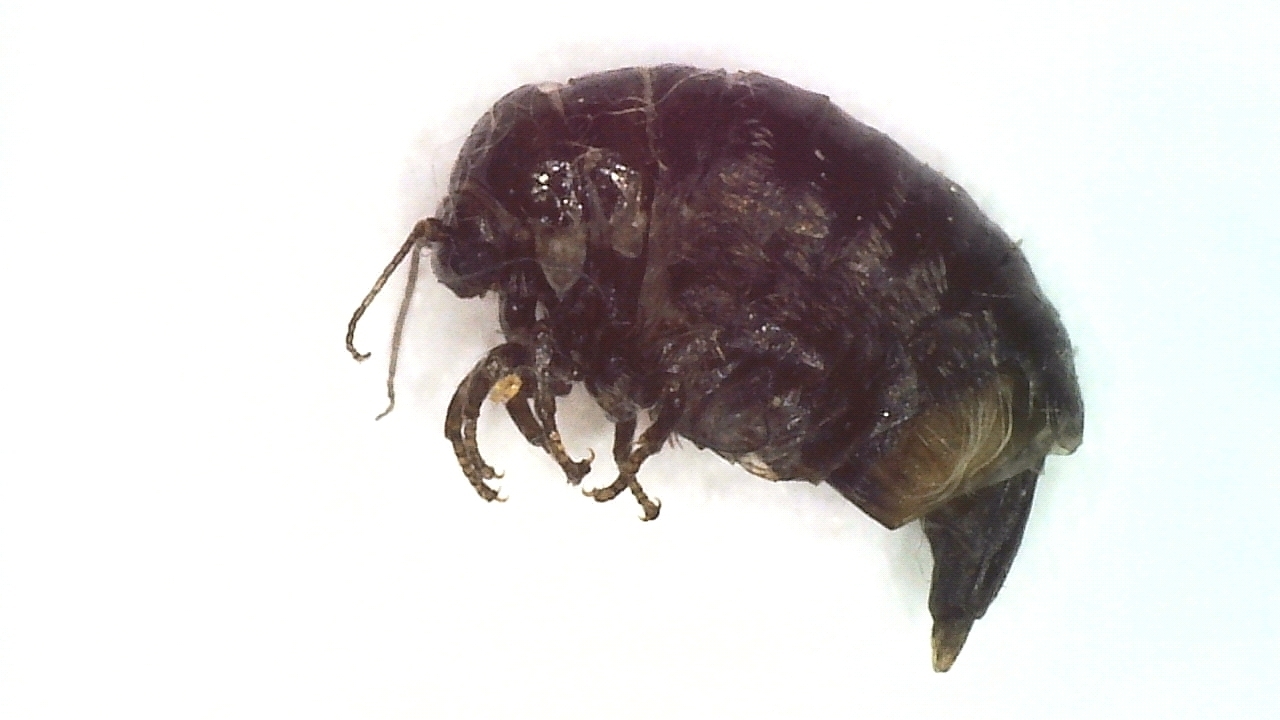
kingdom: Animalia
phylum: Arthropoda
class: Insecta
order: Lepidoptera
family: Psychidae
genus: Dahlica
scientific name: Dahlica listerella
